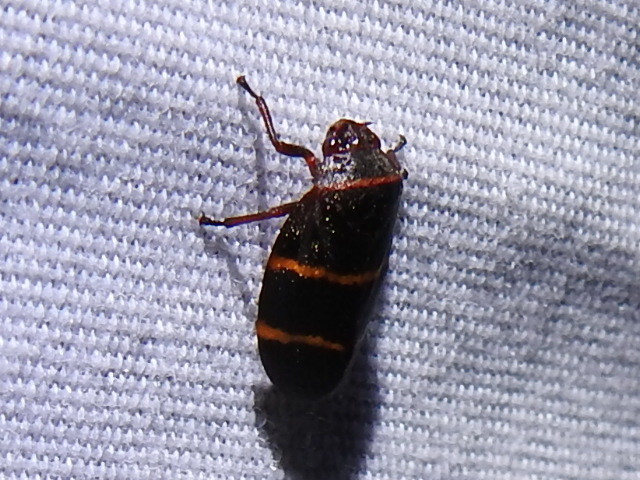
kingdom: Animalia
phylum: Arthropoda
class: Insecta
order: Hemiptera
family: Cercopidae
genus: Prosapia
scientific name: Prosapia bicincta
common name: Twolined spittlebug
